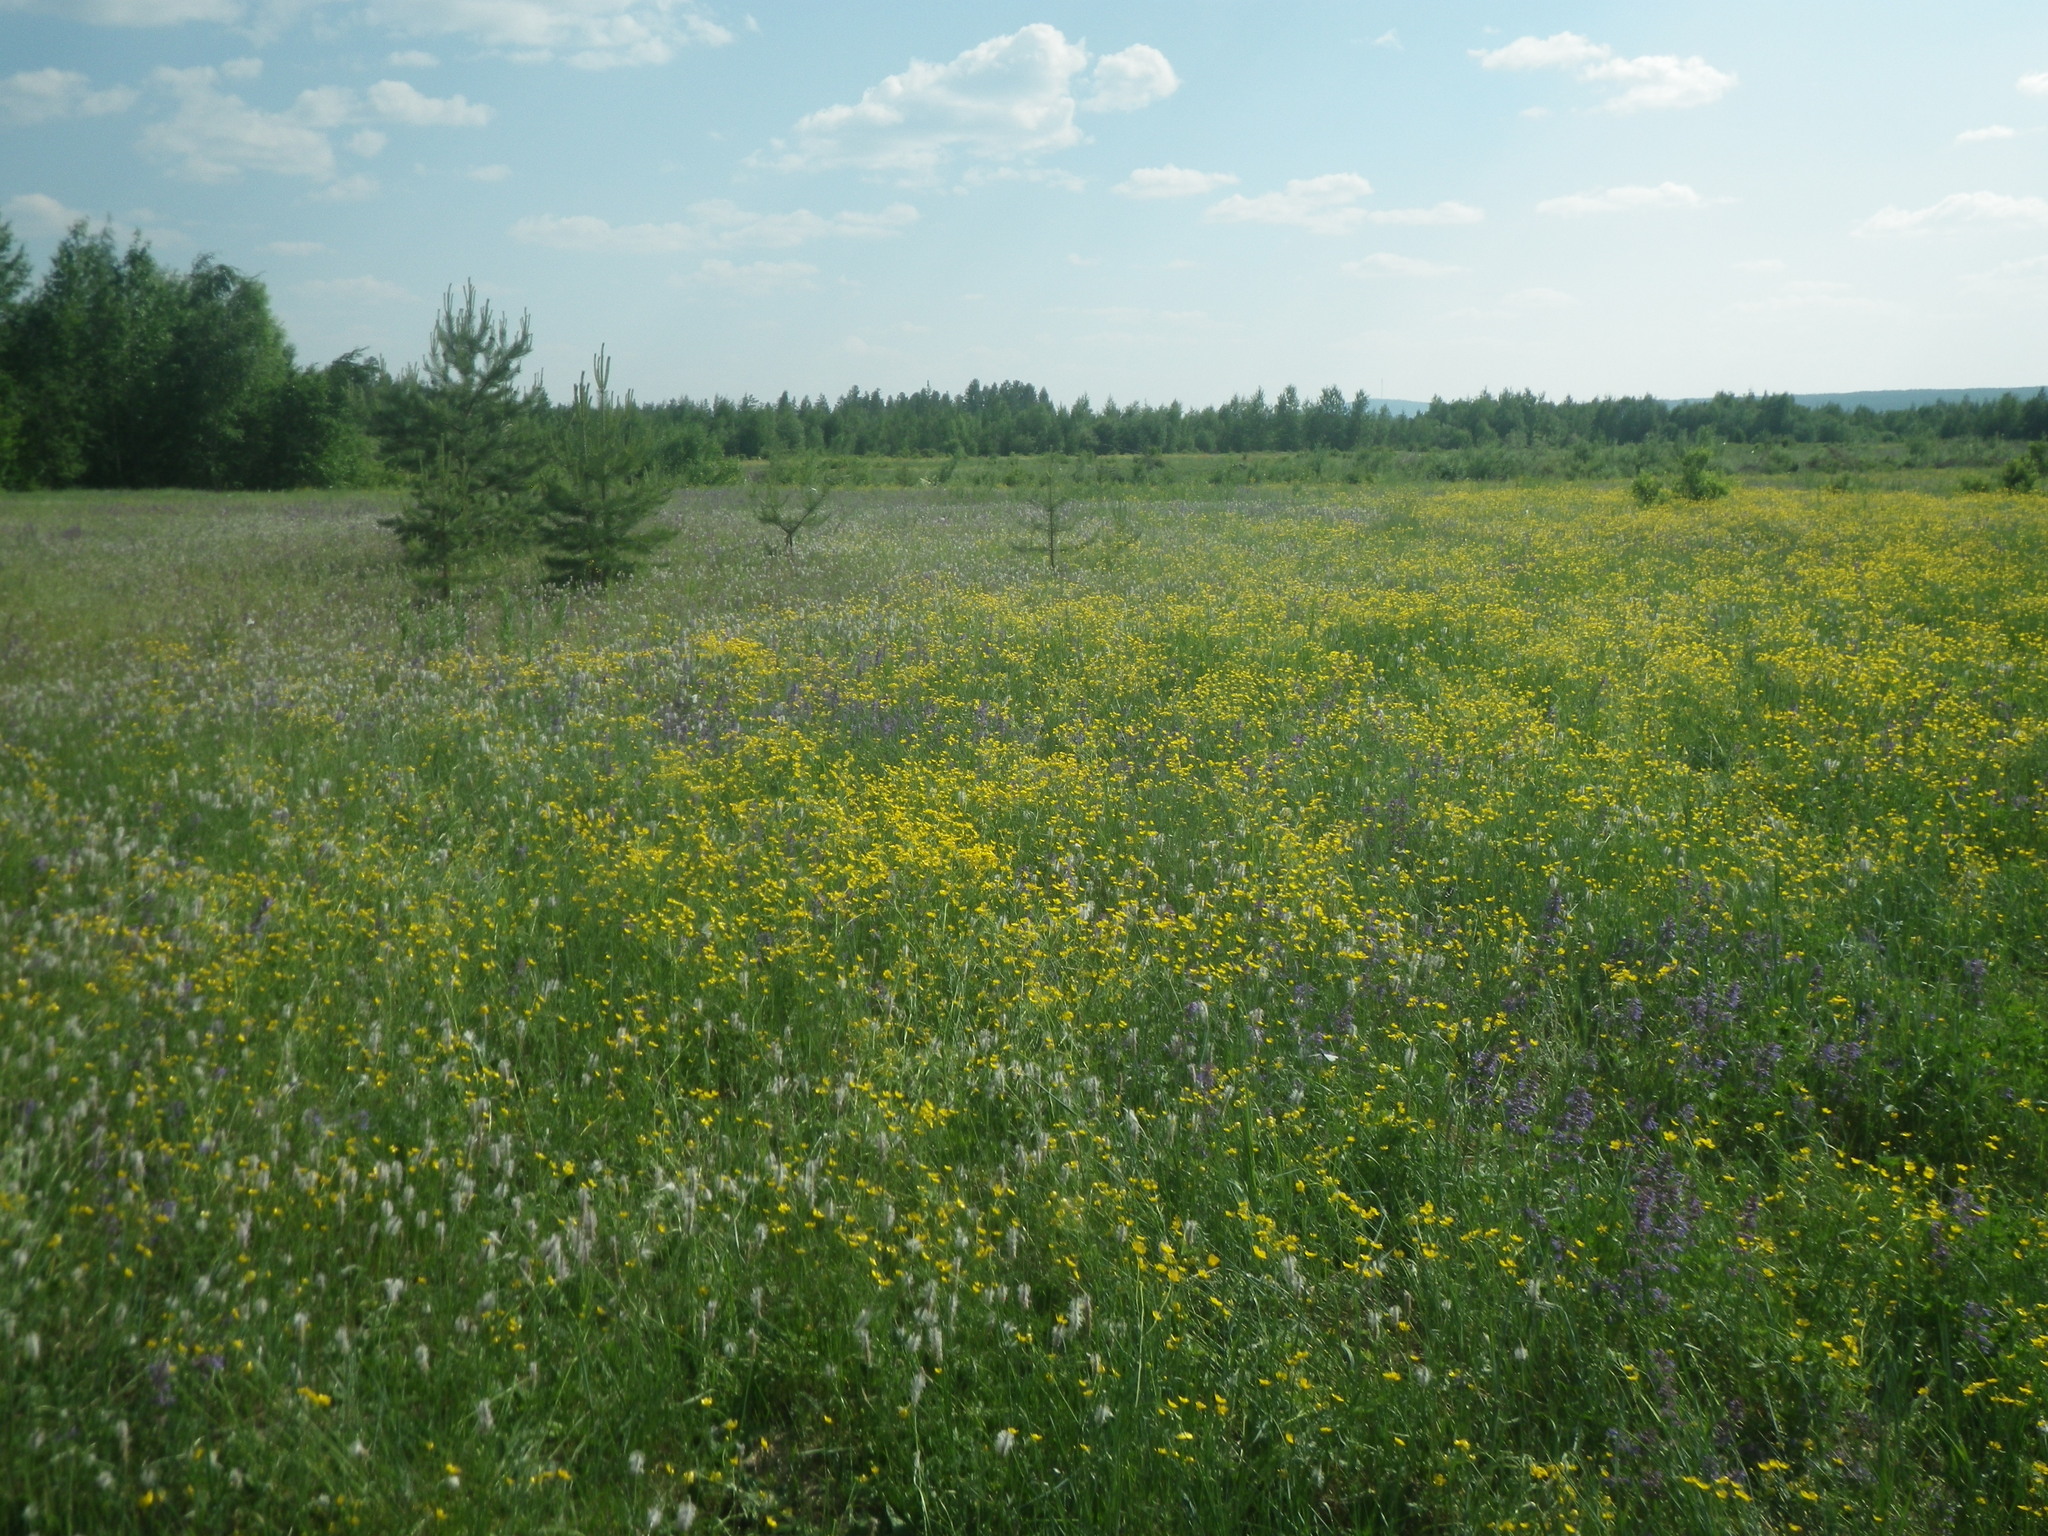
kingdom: Plantae
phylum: Tracheophyta
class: Pinopsida
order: Pinales
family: Pinaceae
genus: Pinus
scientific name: Pinus sylvestris
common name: Scots pine
